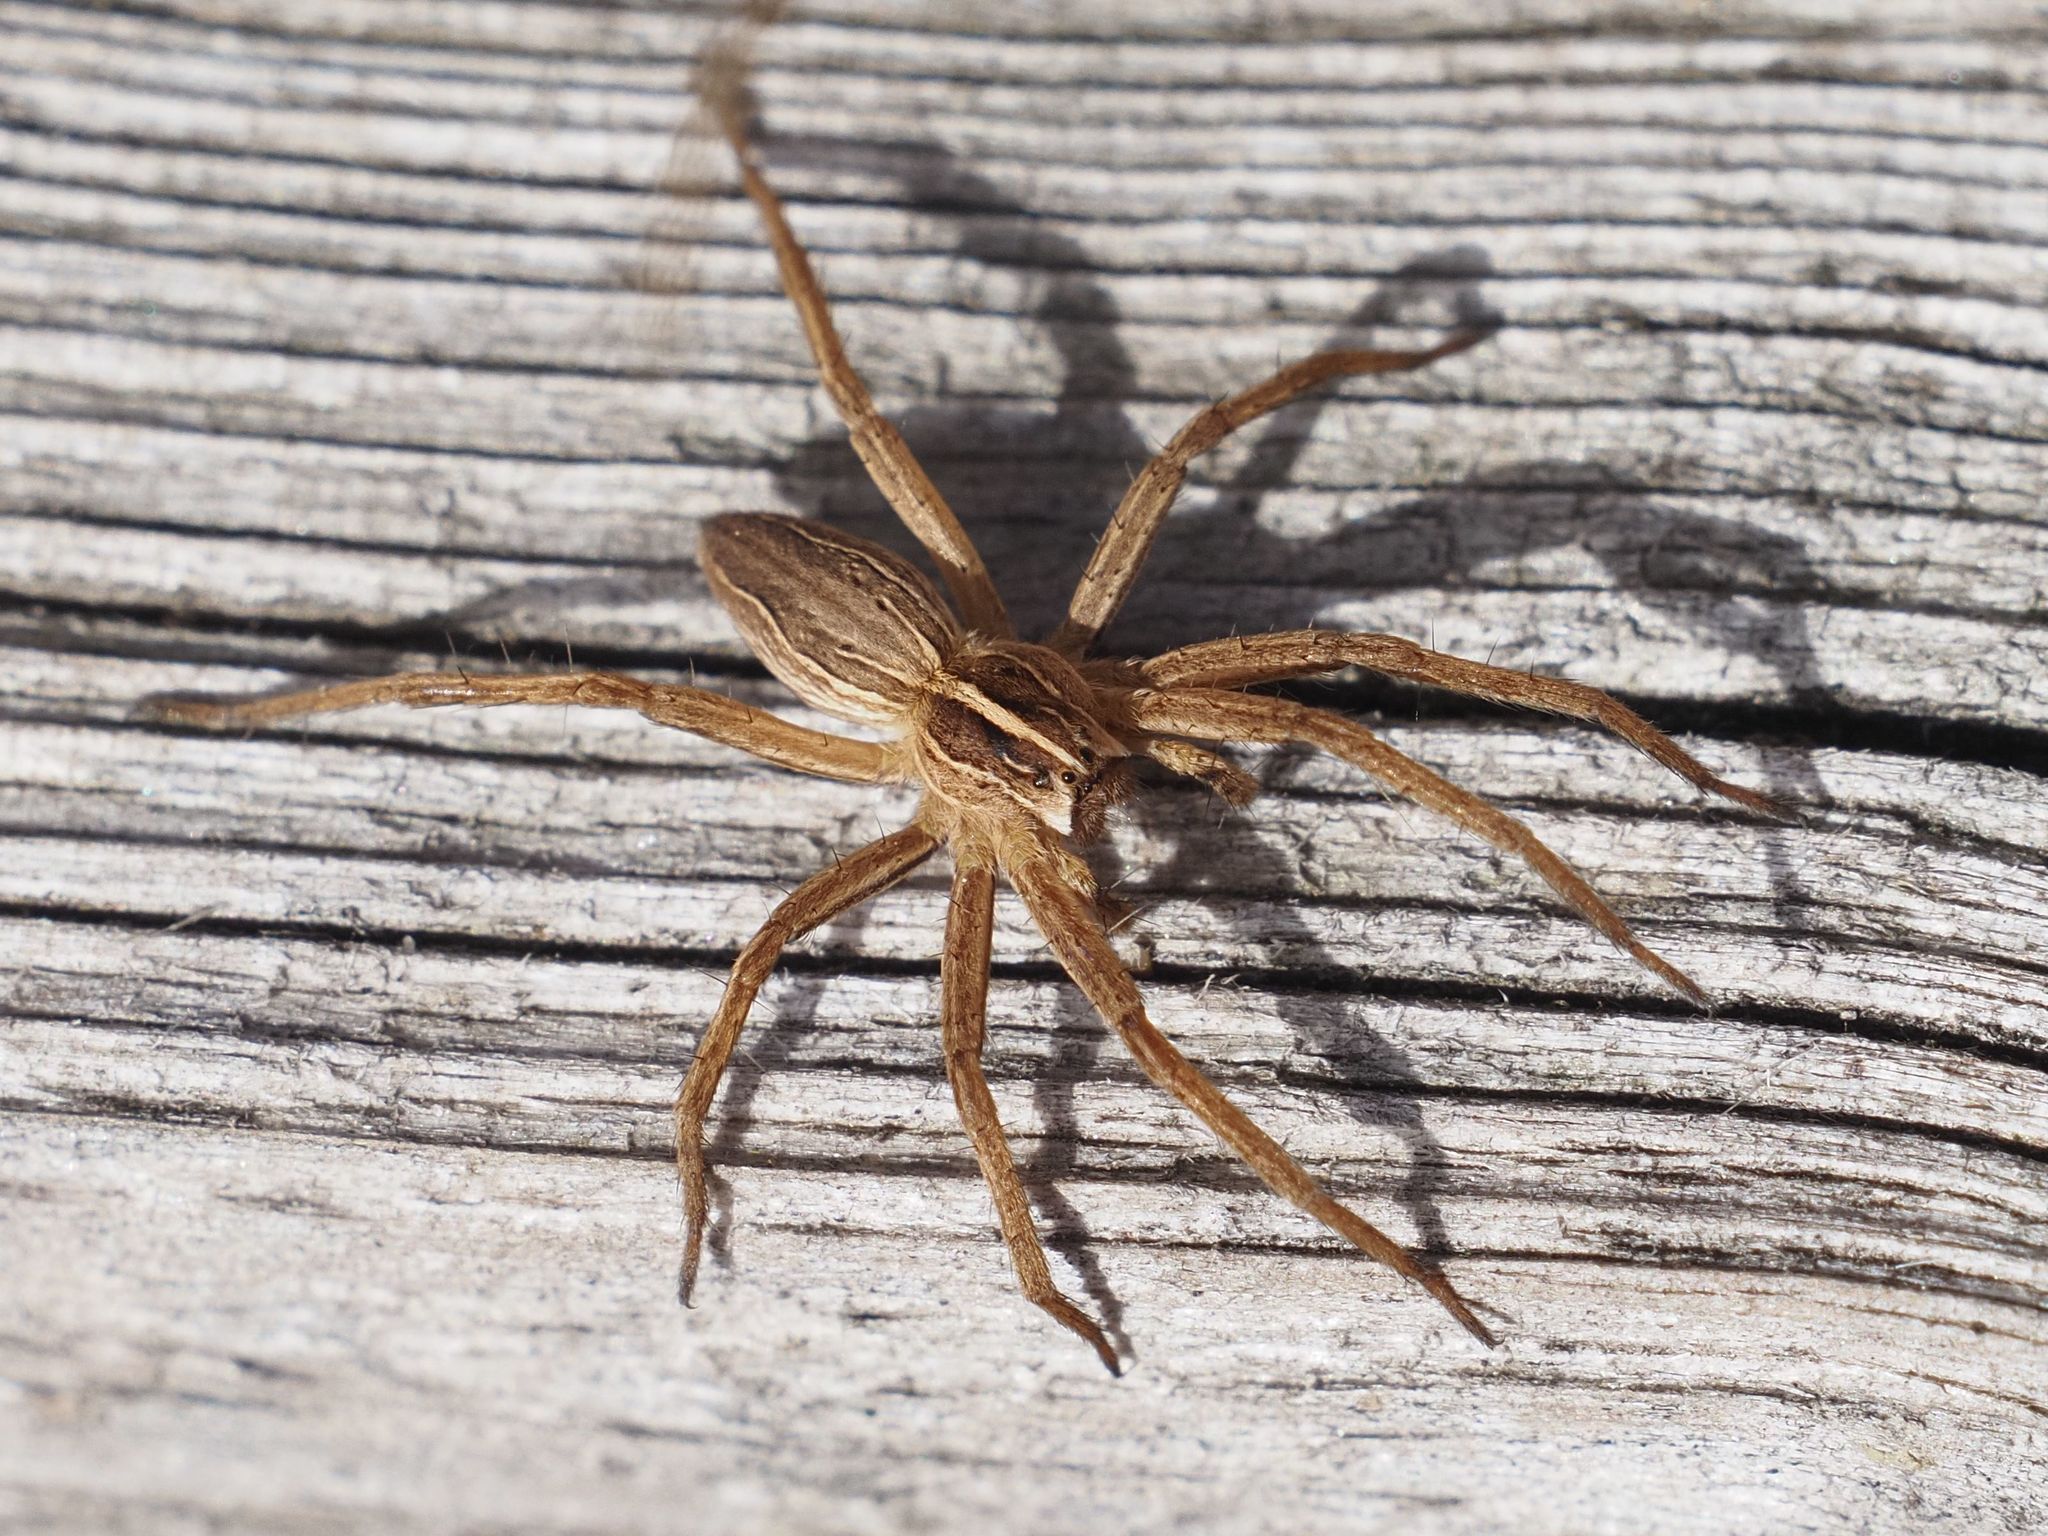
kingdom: Animalia
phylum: Arthropoda
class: Arachnida
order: Araneae
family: Pisauridae
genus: Pisaura
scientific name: Pisaura mirabilis
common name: Tent spider
